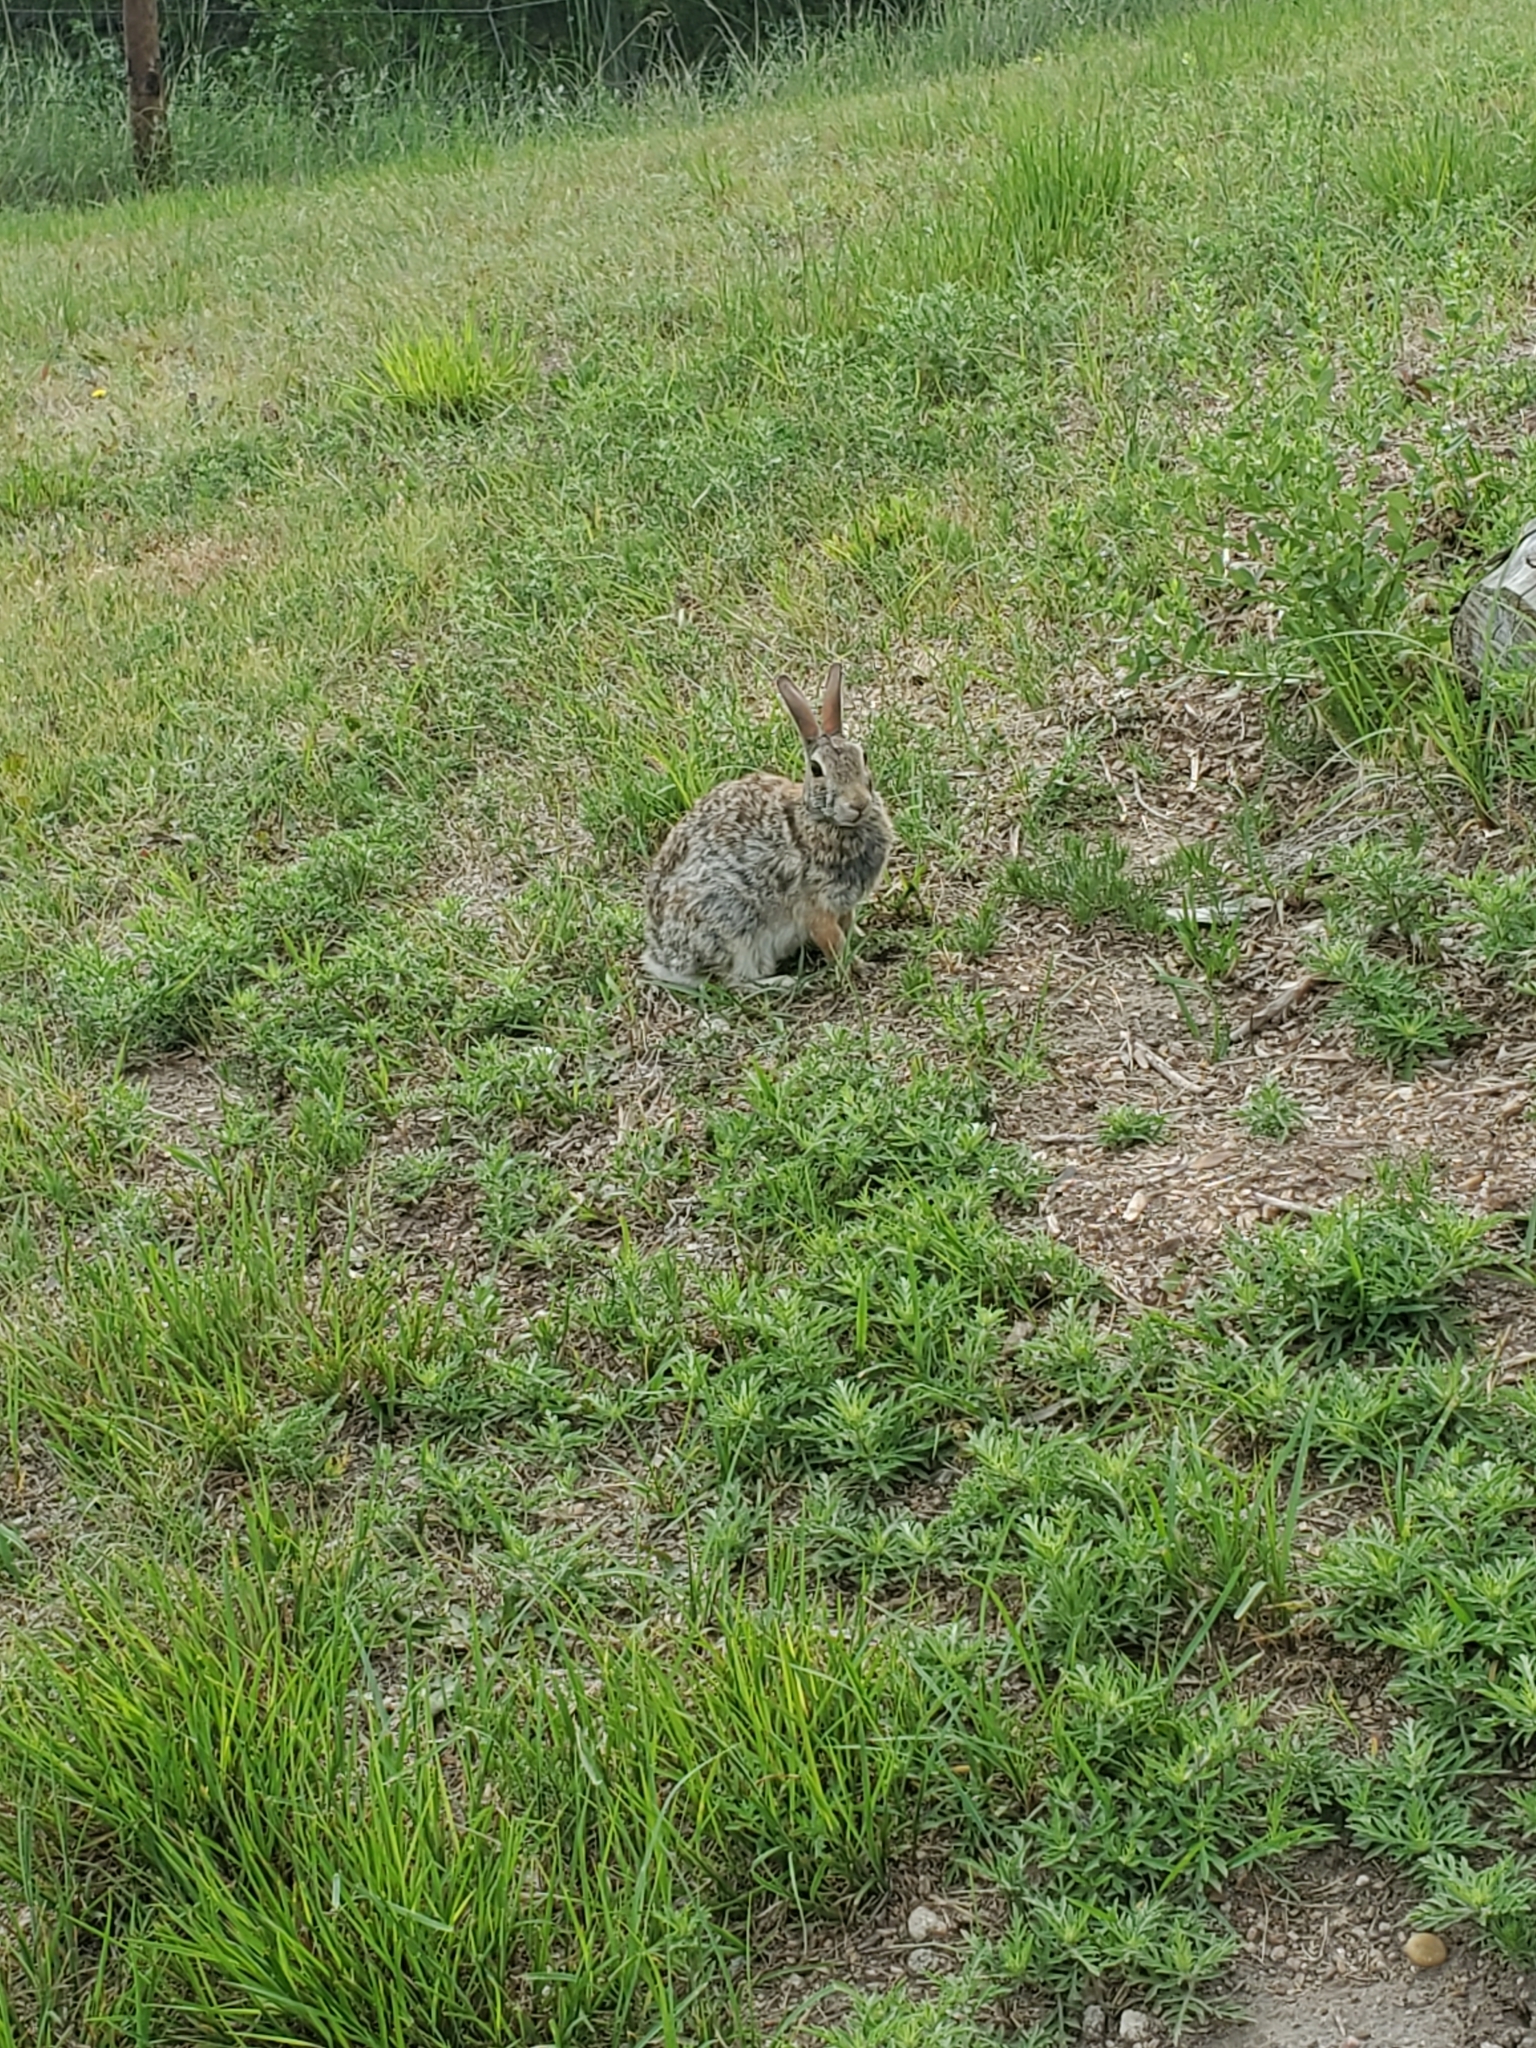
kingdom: Animalia
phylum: Chordata
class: Mammalia
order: Lagomorpha
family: Leporidae
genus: Sylvilagus
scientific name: Sylvilagus floridanus
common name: Eastern cottontail
